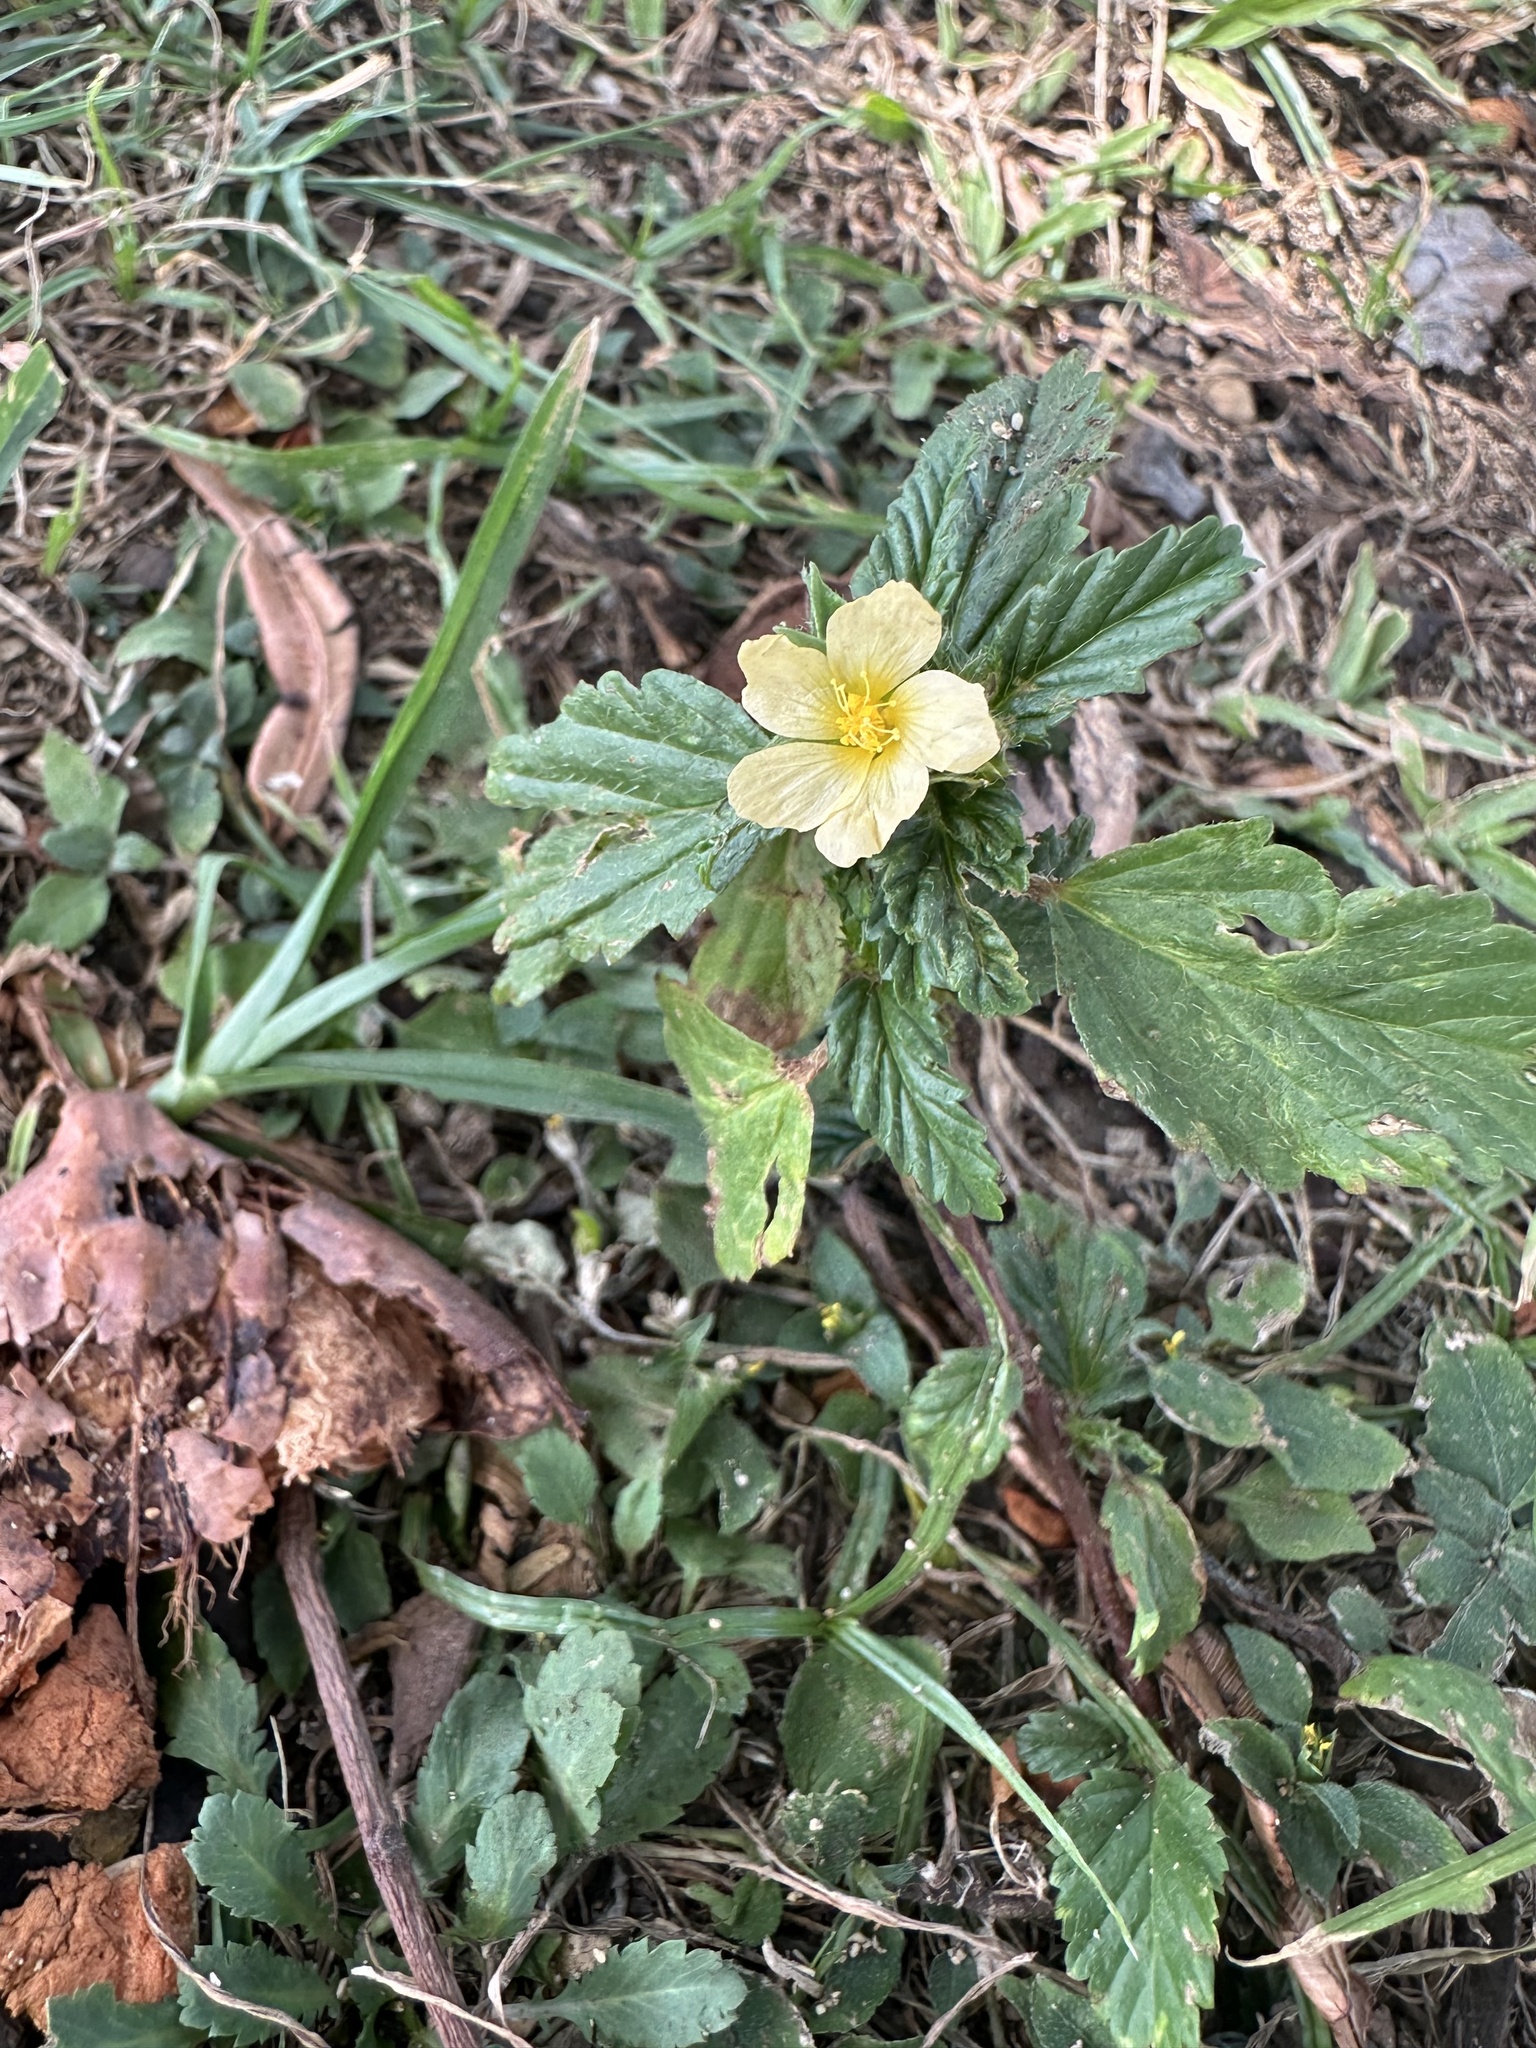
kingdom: Plantae
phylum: Tracheophyta
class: Magnoliopsida
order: Malvales
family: Malvaceae
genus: Malvastrum
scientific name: Malvastrum coromandelianum
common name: Threelobe false mallow
